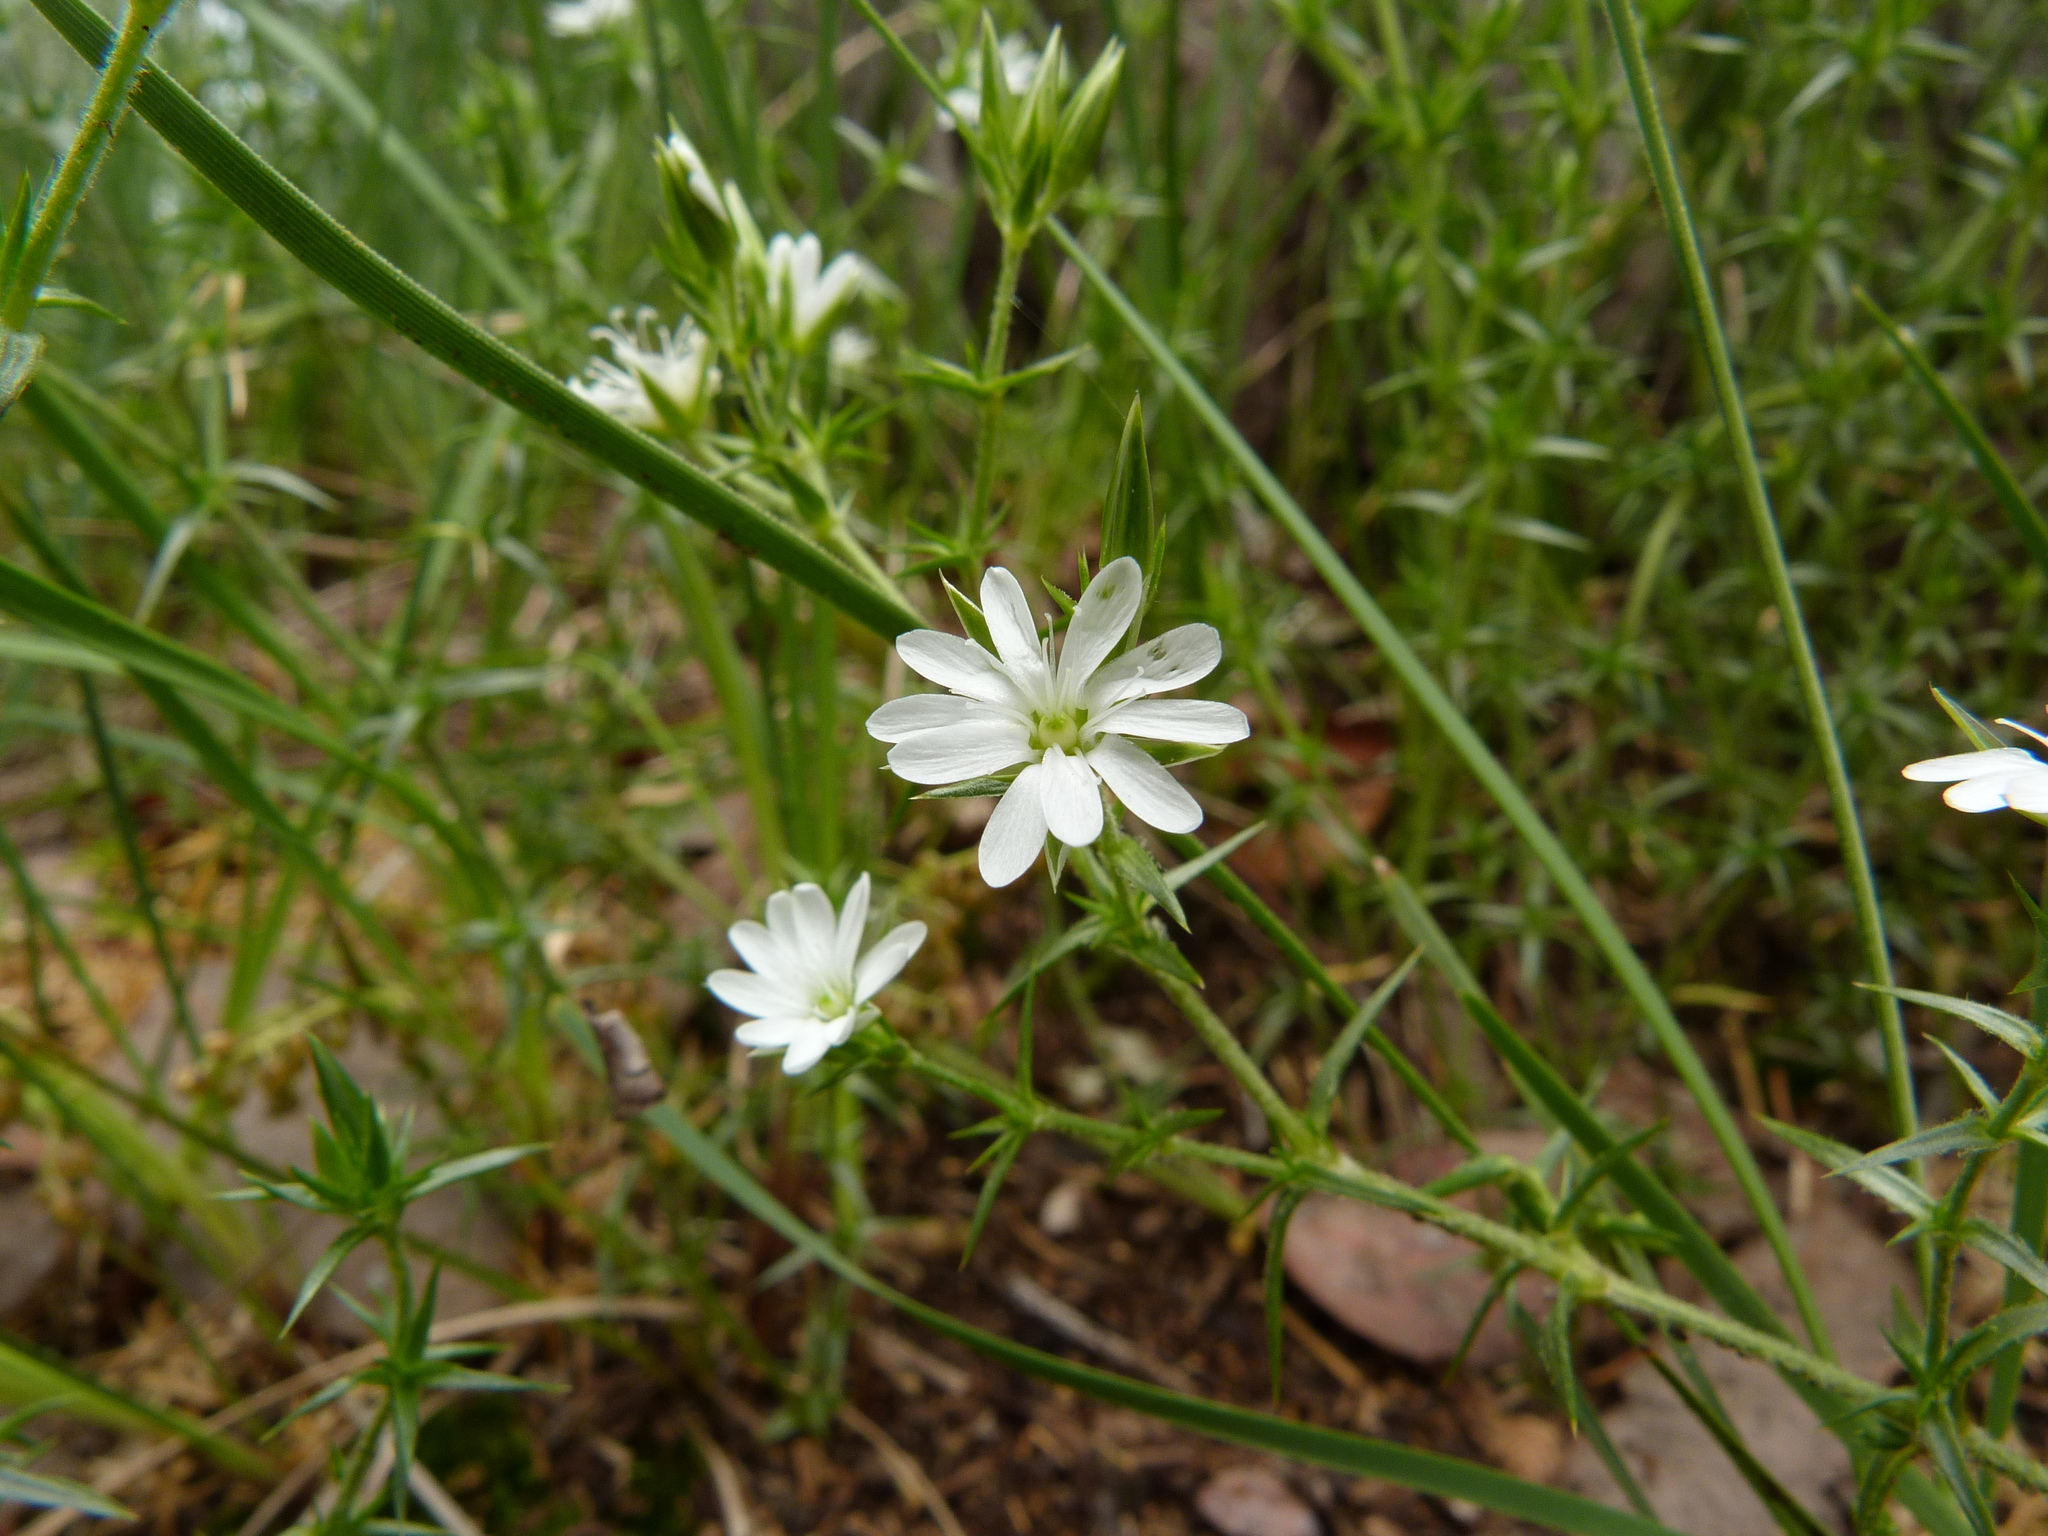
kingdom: Plantae
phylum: Tracheophyta
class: Magnoliopsida
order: Caryophyllales
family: Caryophyllaceae
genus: Stellaria
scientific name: Stellaria pungens
